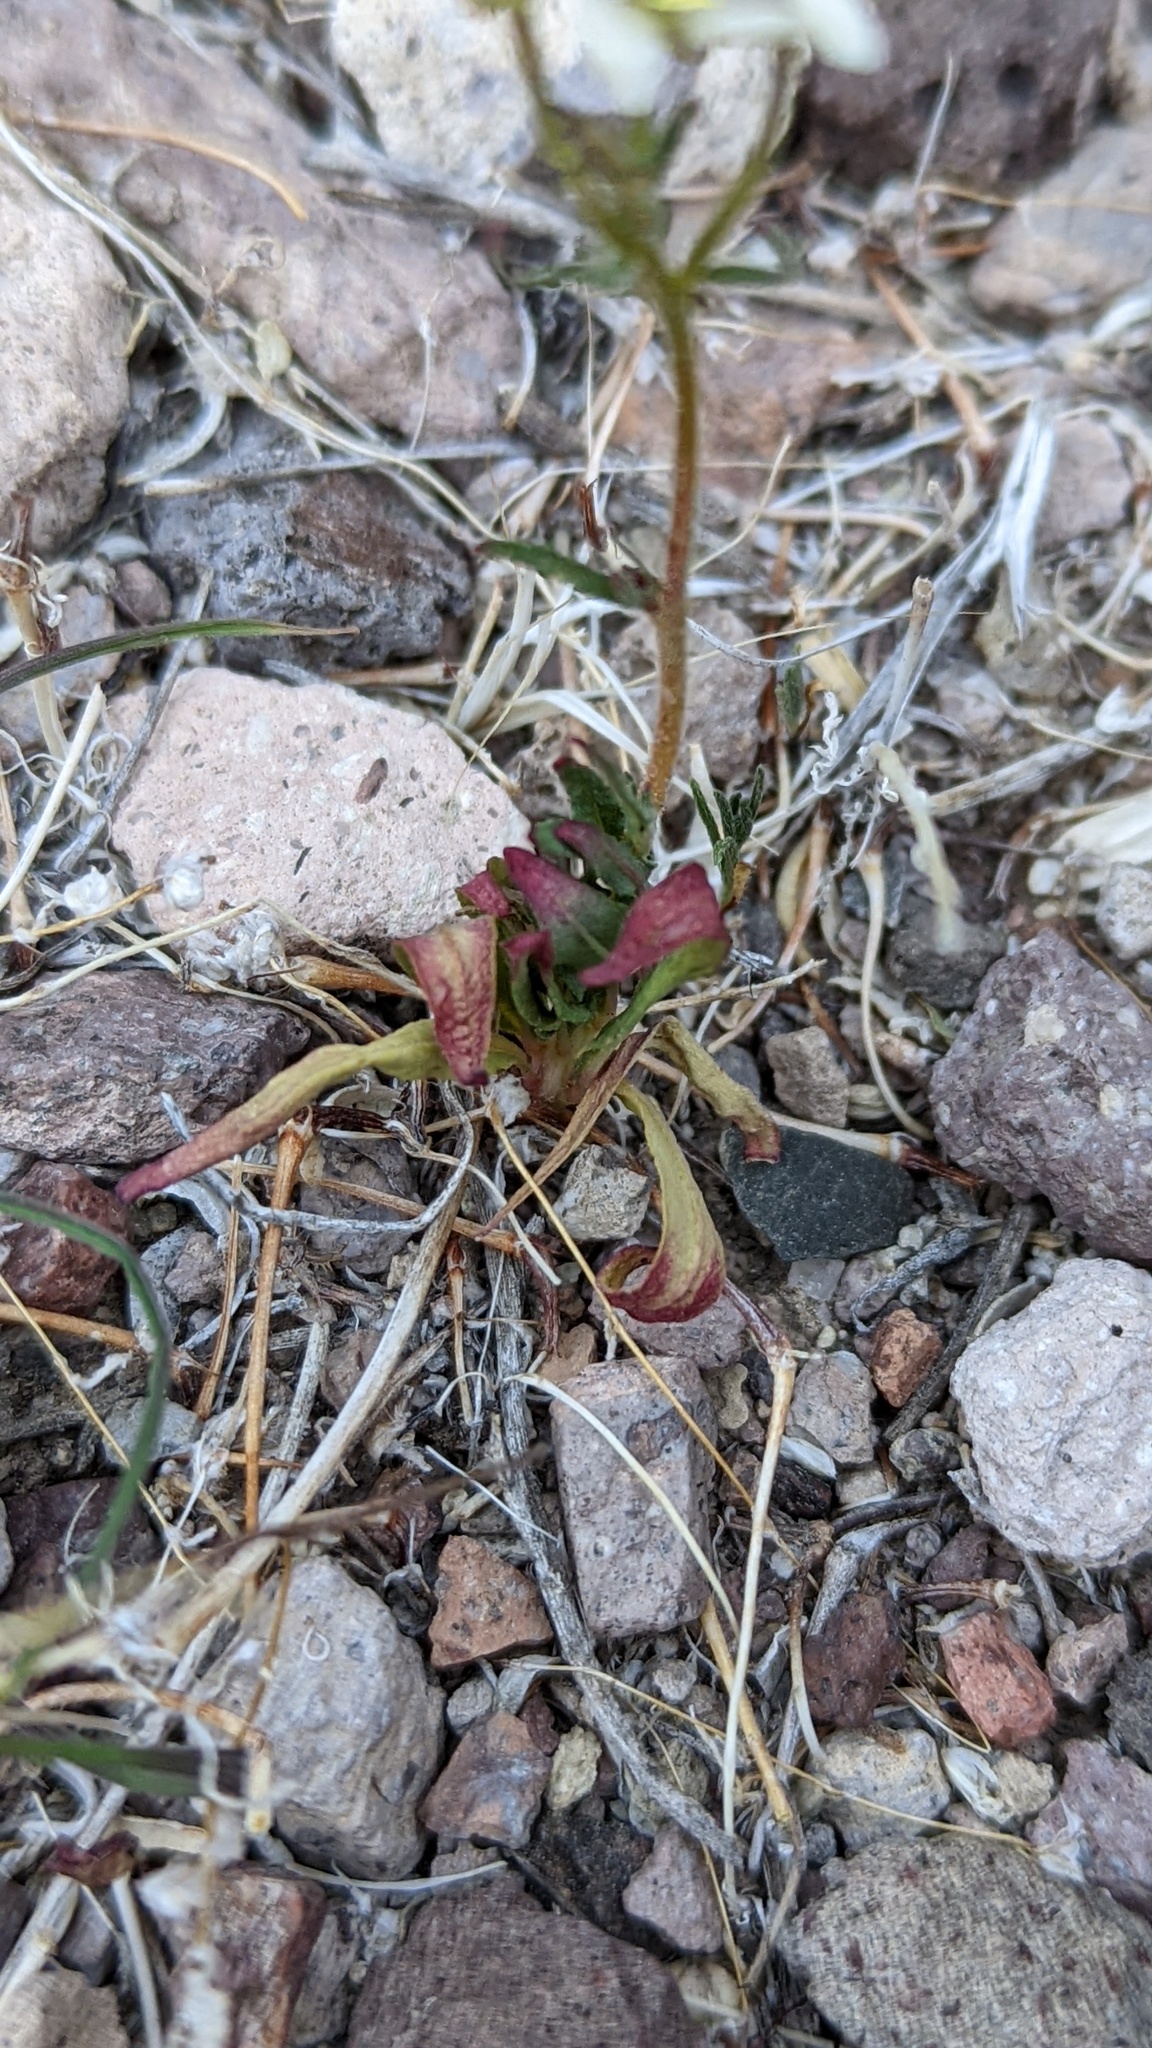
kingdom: Plantae
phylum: Tracheophyta
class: Magnoliopsida
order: Myrtales
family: Onagraceae
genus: Eremothera
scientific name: Eremothera refracta
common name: Narrowleaf suncup
